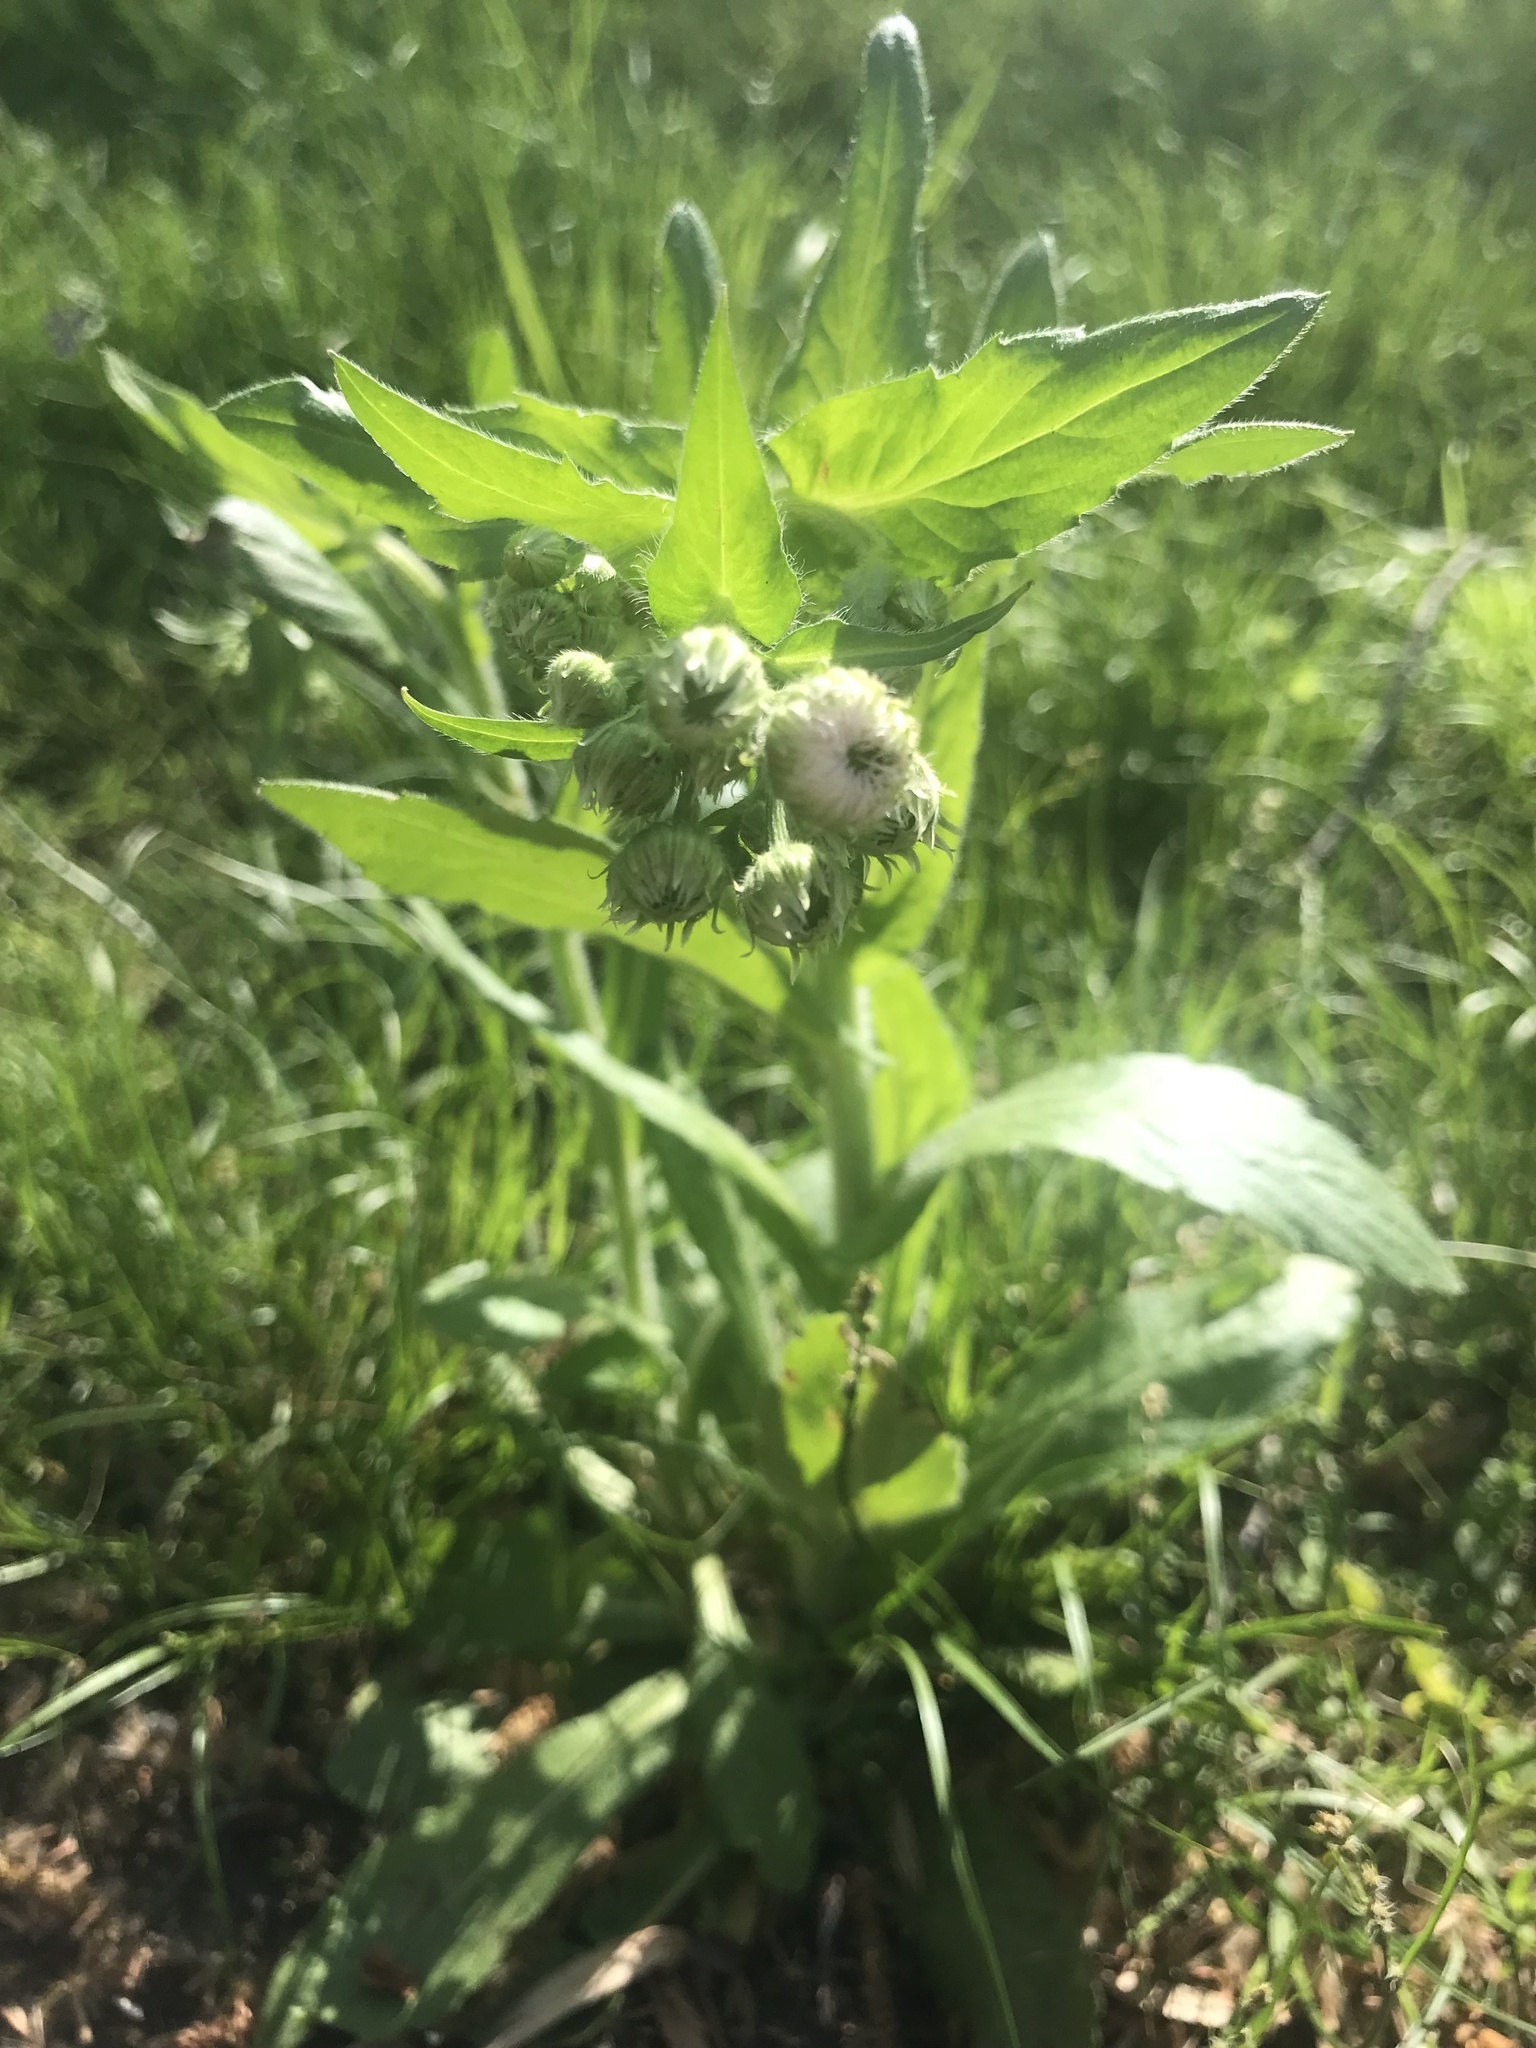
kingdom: Plantae
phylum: Tracheophyta
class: Magnoliopsida
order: Asterales
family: Asteraceae
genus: Erigeron
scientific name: Erigeron philadelphicus
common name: Robin's-plantain
